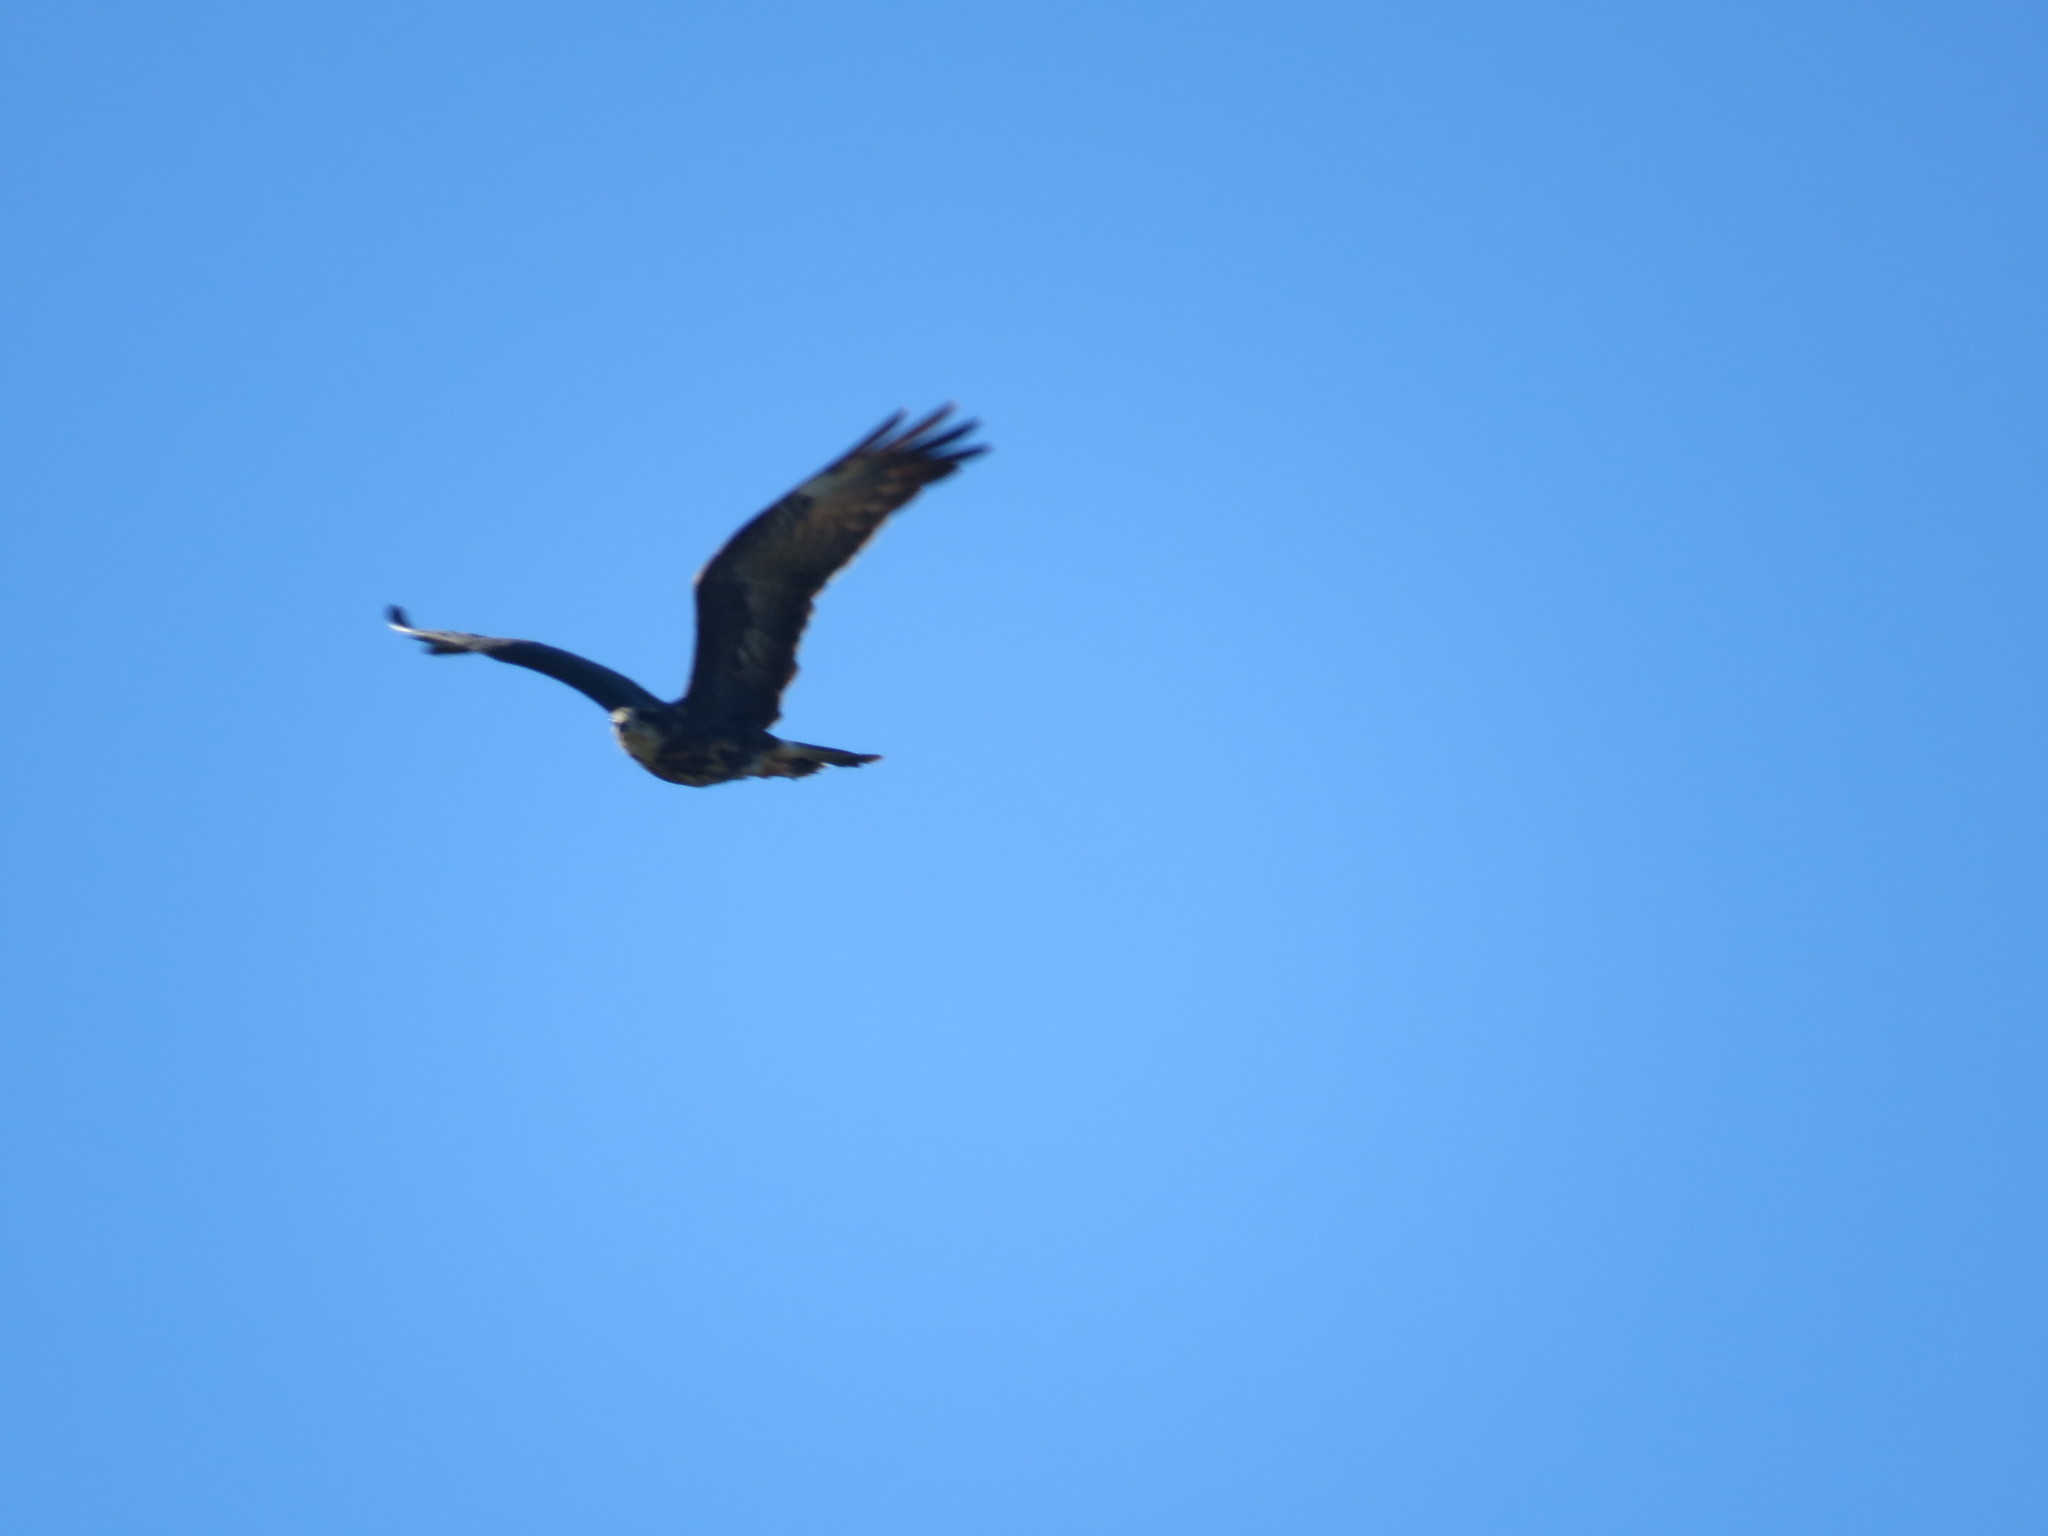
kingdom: Animalia
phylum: Chordata
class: Aves
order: Accipitriformes
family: Accipitridae
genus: Rostrhamus
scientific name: Rostrhamus sociabilis
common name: Snail kite
